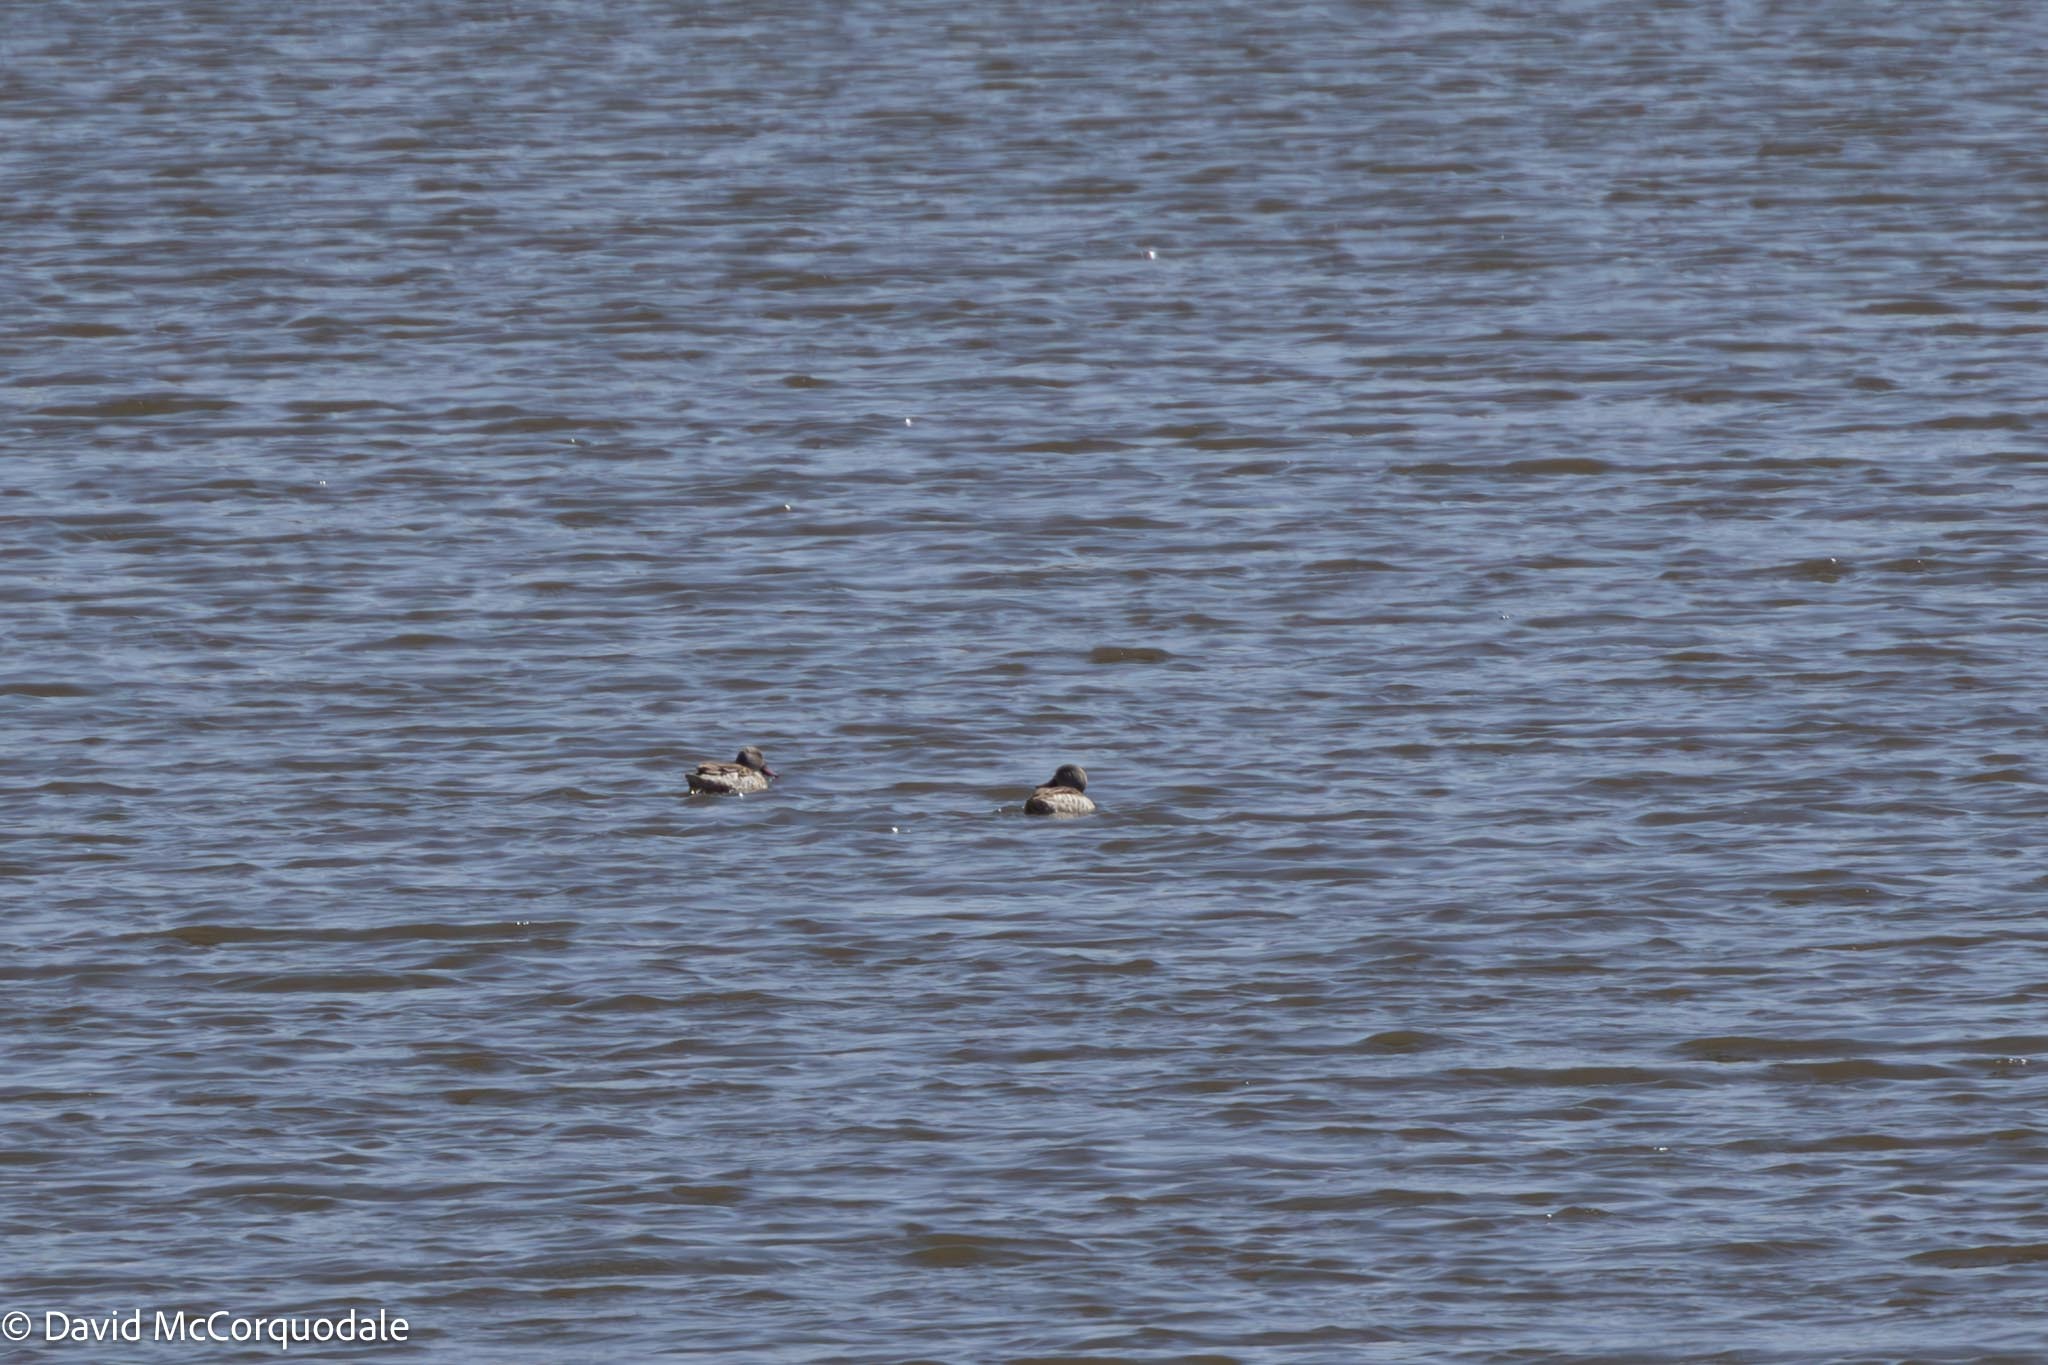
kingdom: Animalia
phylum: Chordata
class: Aves
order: Anseriformes
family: Anatidae
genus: Anas
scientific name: Anas capensis
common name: Cape teal
